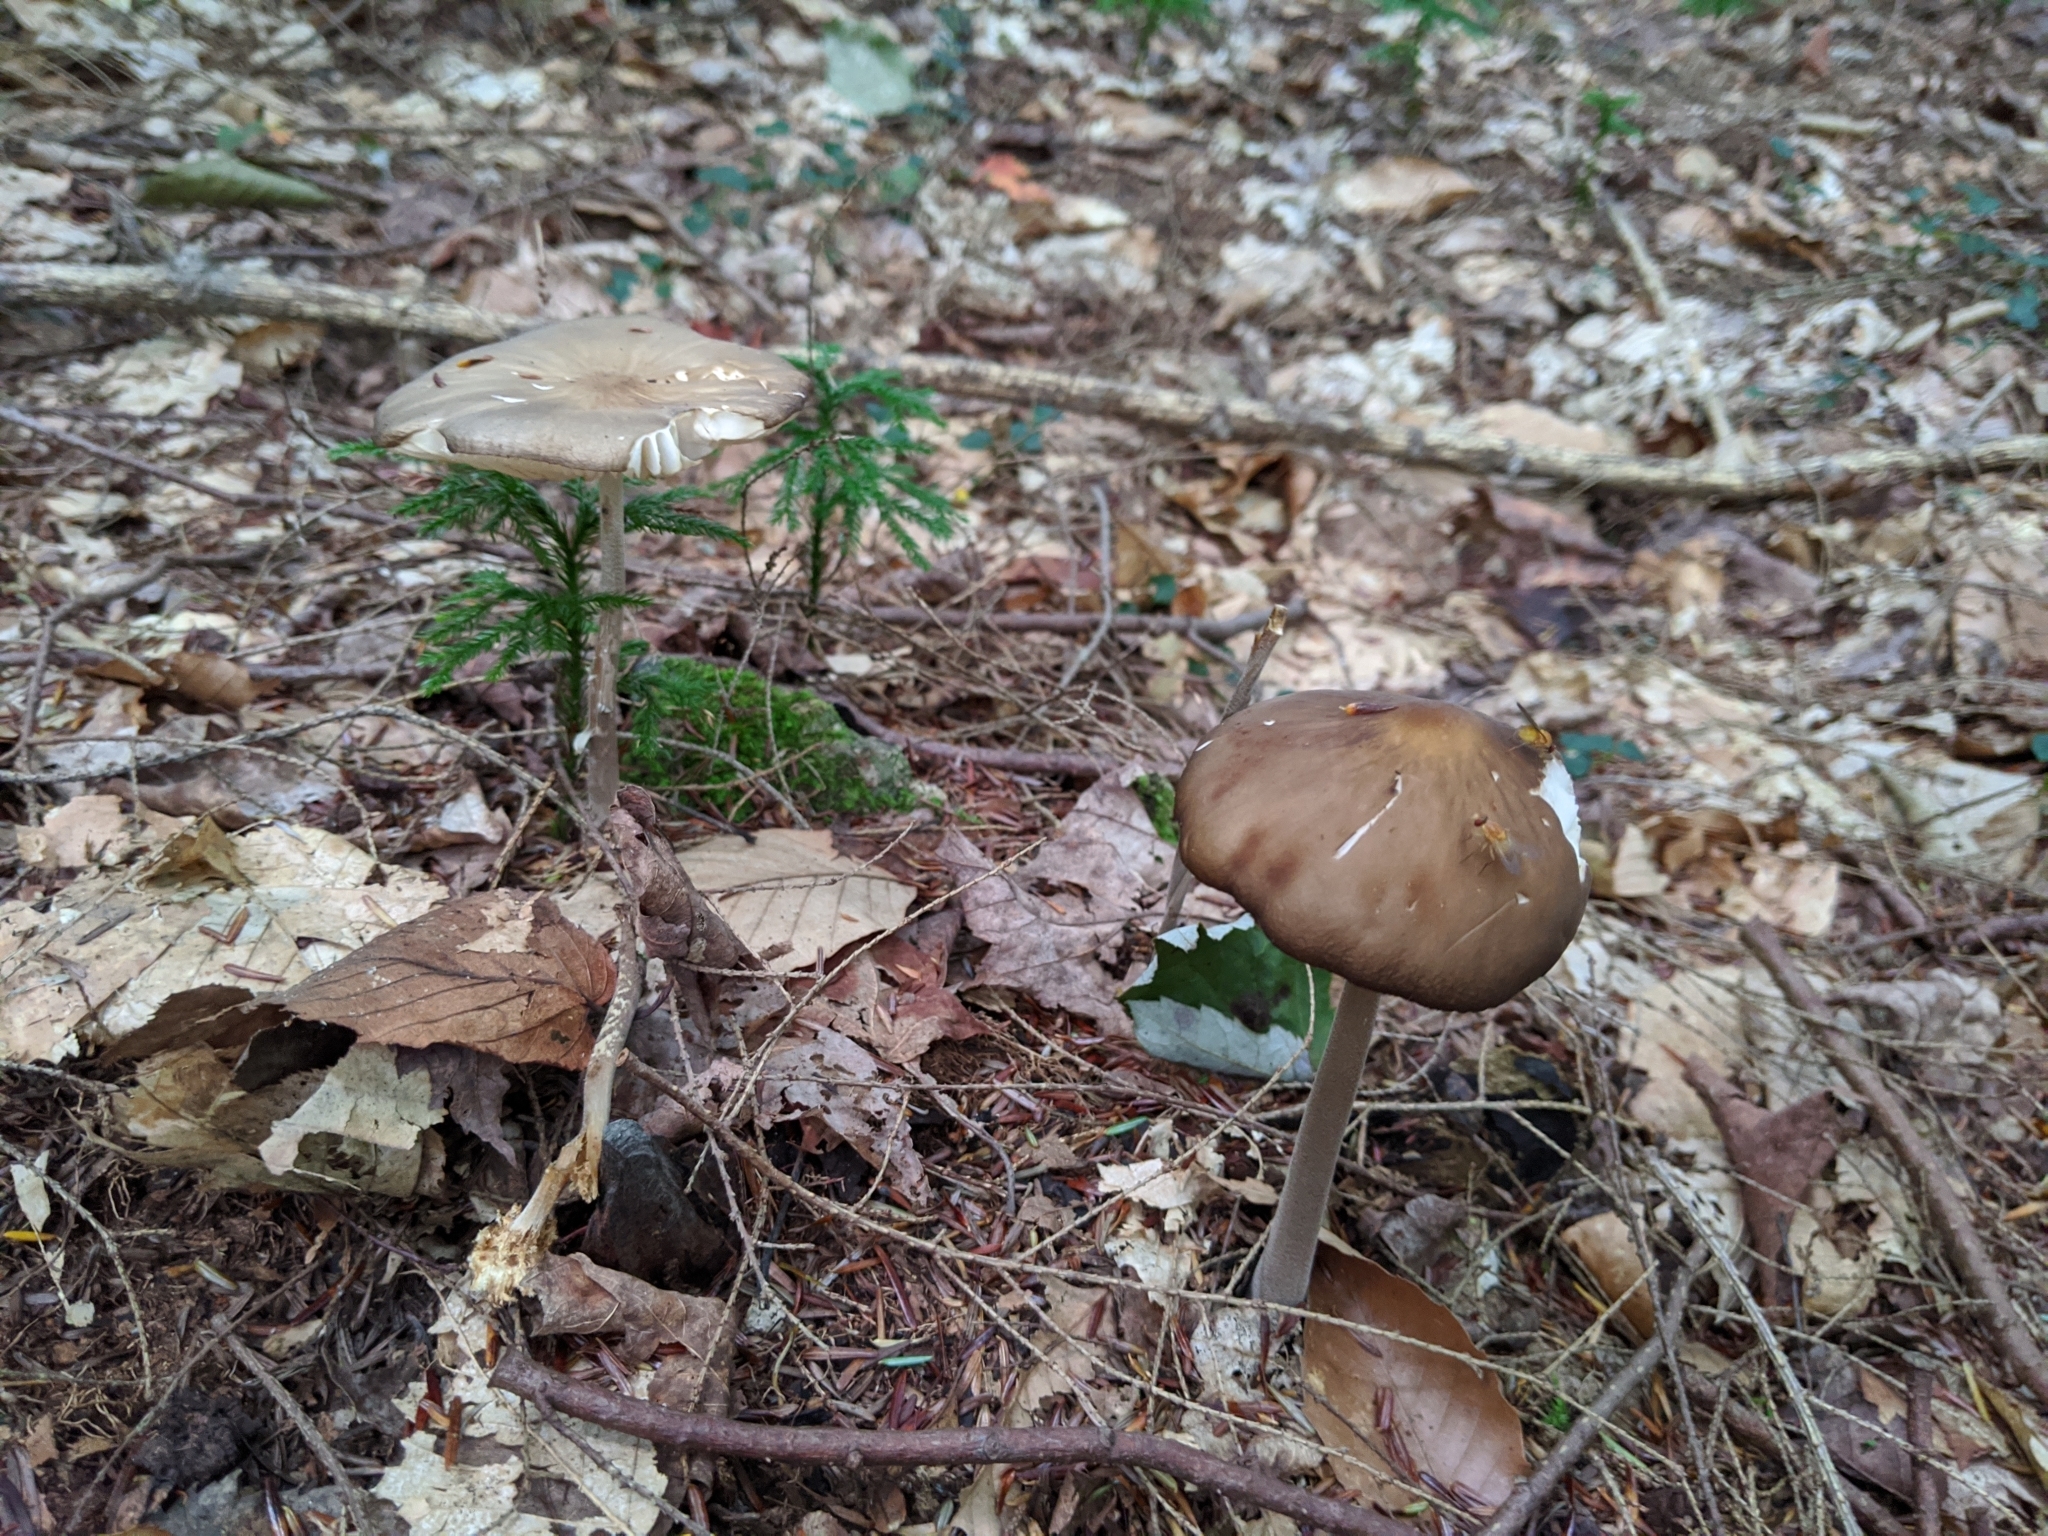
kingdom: Fungi
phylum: Basidiomycota
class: Agaricomycetes
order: Agaricales
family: Physalacriaceae
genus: Hymenopellis
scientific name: Hymenopellis furfuracea
